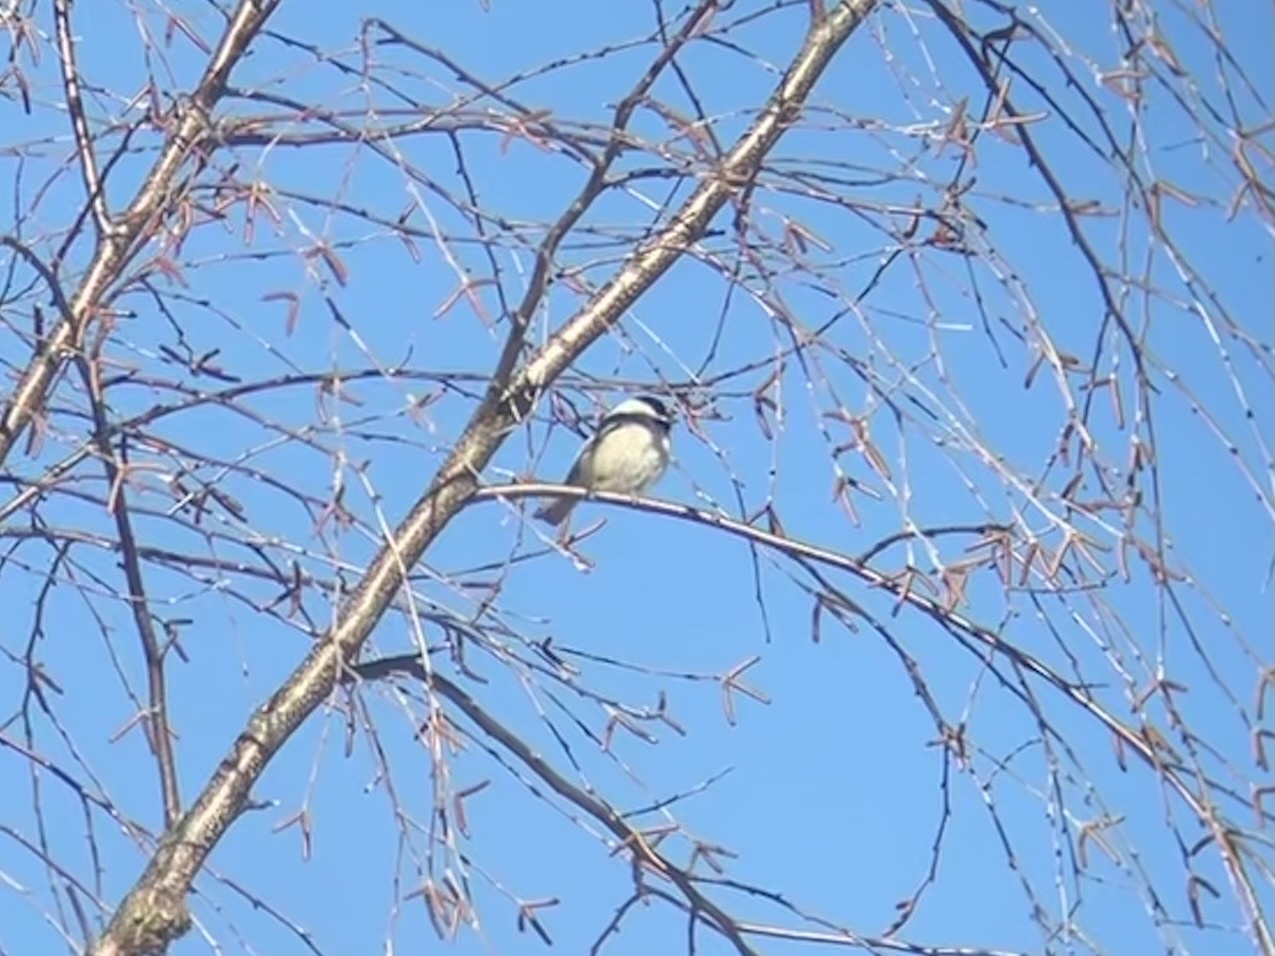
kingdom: Animalia
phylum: Chordata
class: Aves
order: Passeriformes
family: Paridae
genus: Poecile
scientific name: Poecile carolinensis
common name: Carolina chickadee
